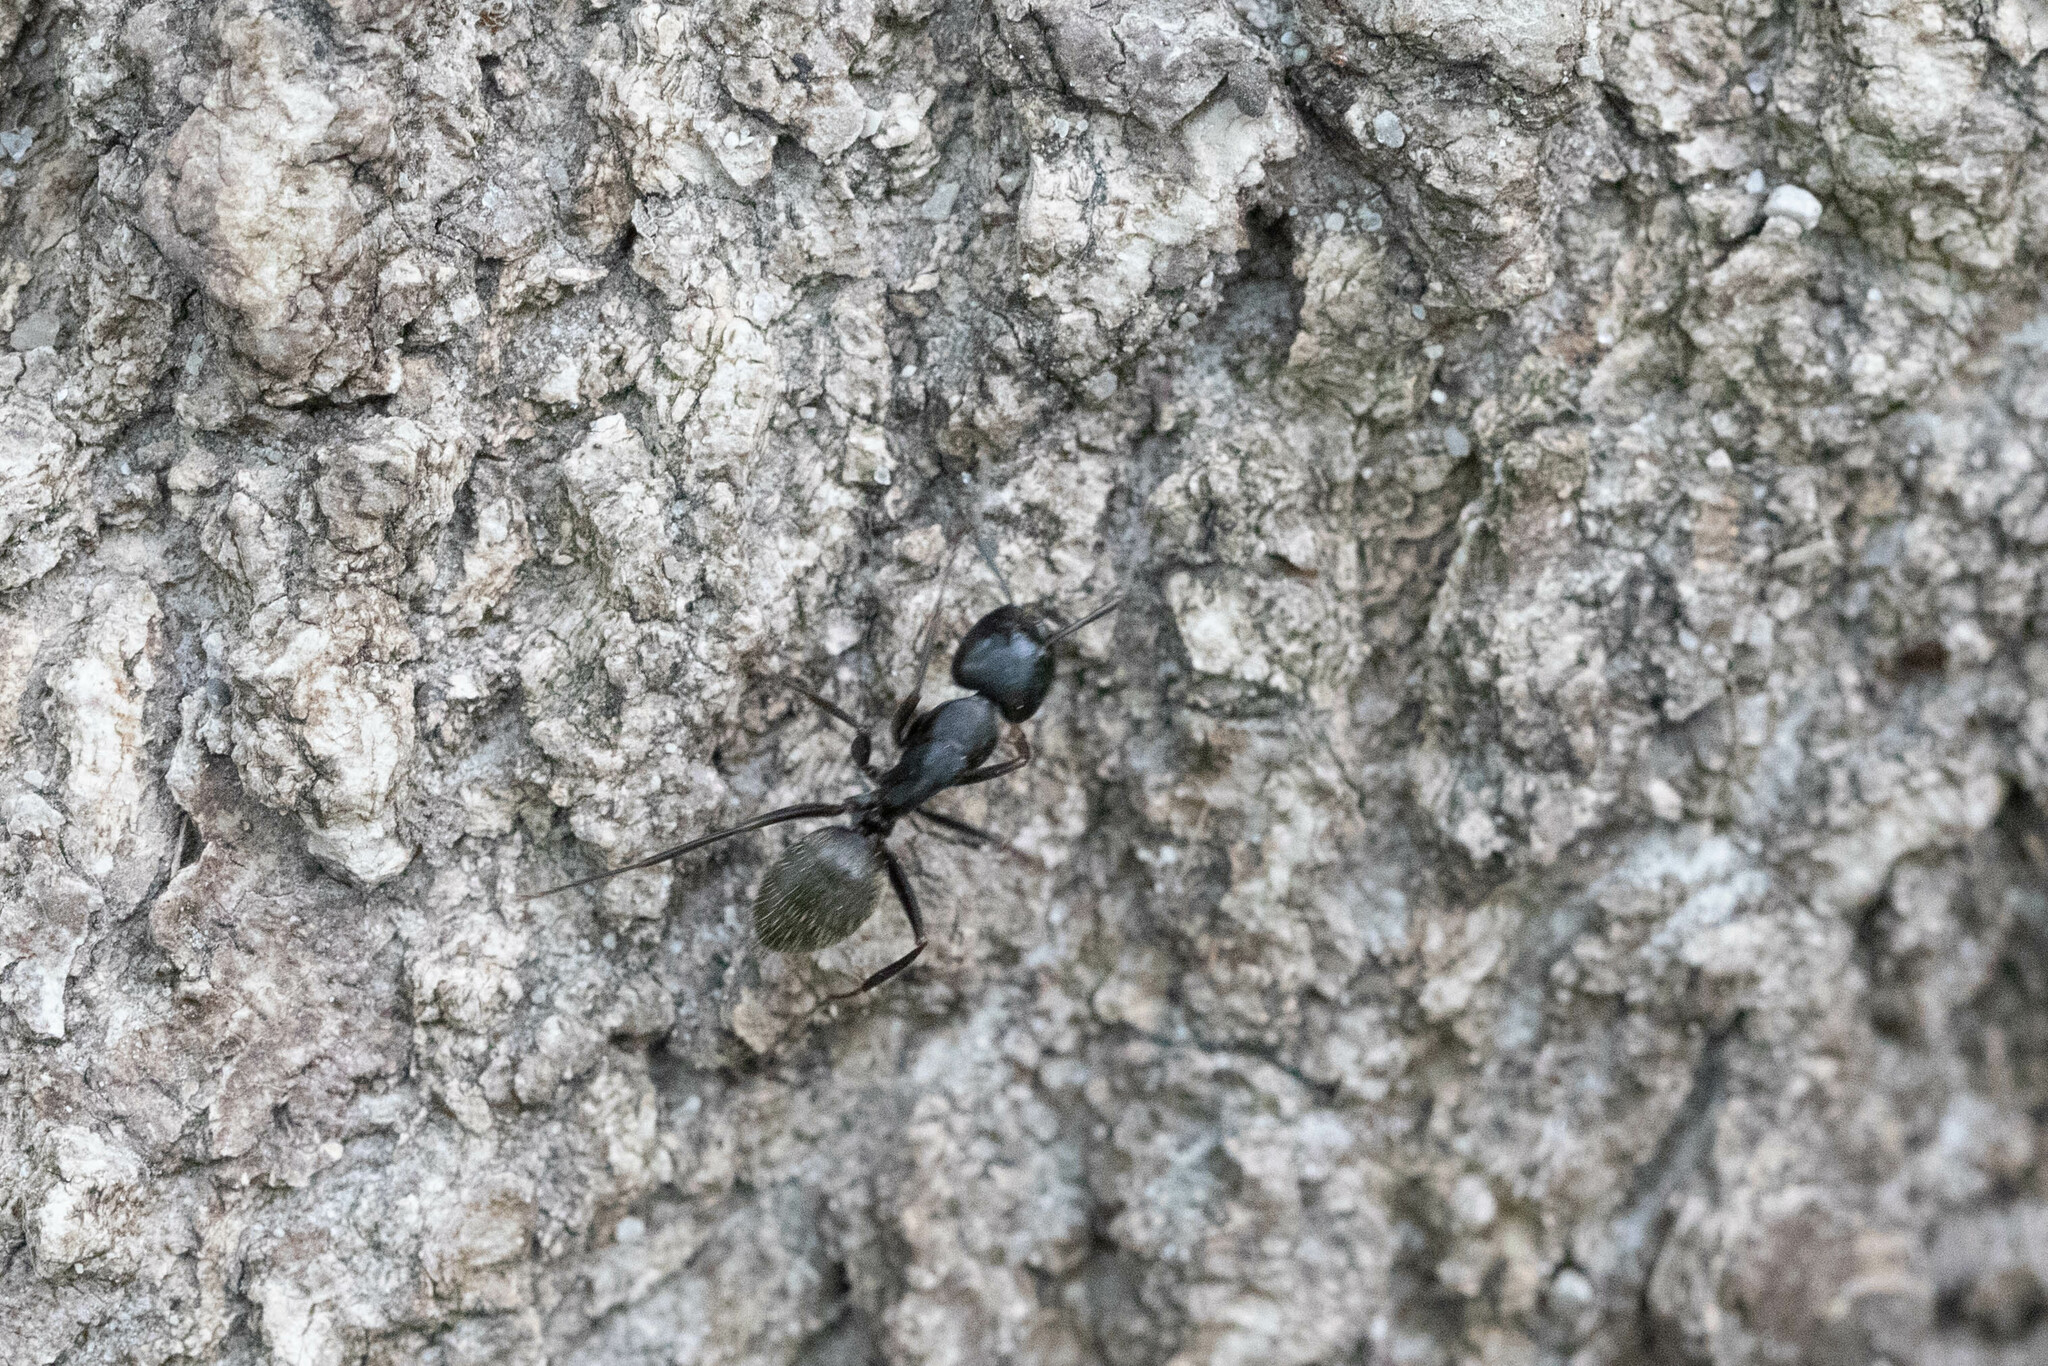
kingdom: Animalia
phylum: Arthropoda
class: Insecta
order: Hymenoptera
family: Formicidae
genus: Camponotus
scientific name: Camponotus pennsylvanicus
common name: Black carpenter ant
